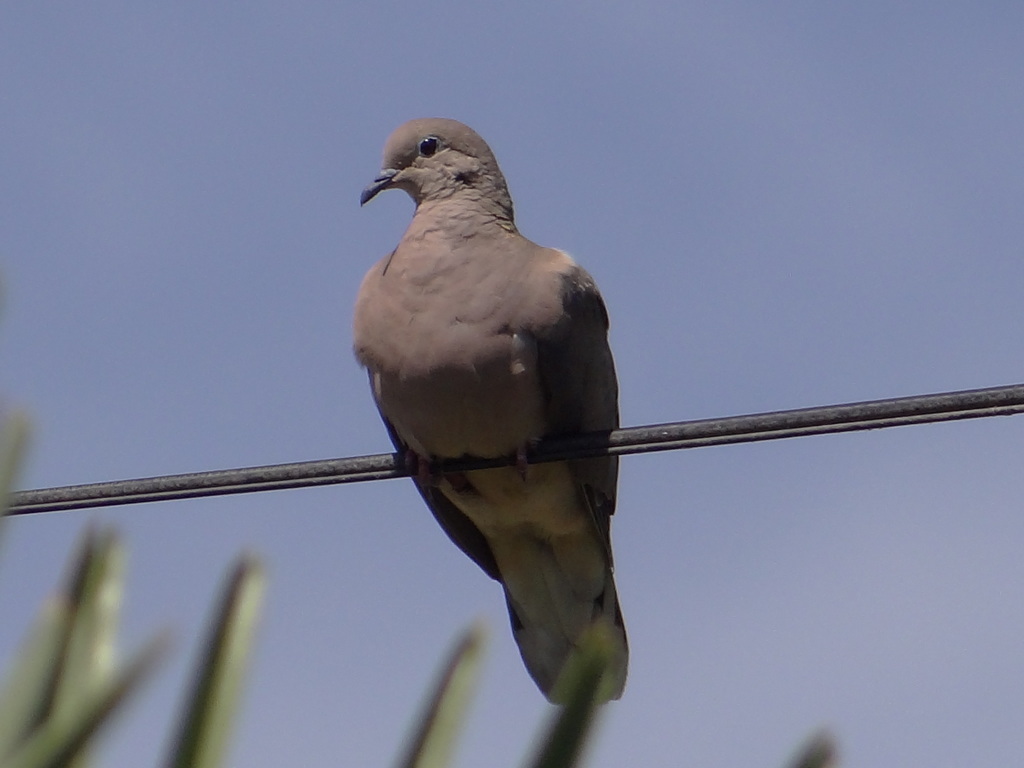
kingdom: Animalia
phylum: Chordata
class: Aves
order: Columbiformes
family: Columbidae
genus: Zenaida
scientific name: Zenaida auriculata
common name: Eared dove
